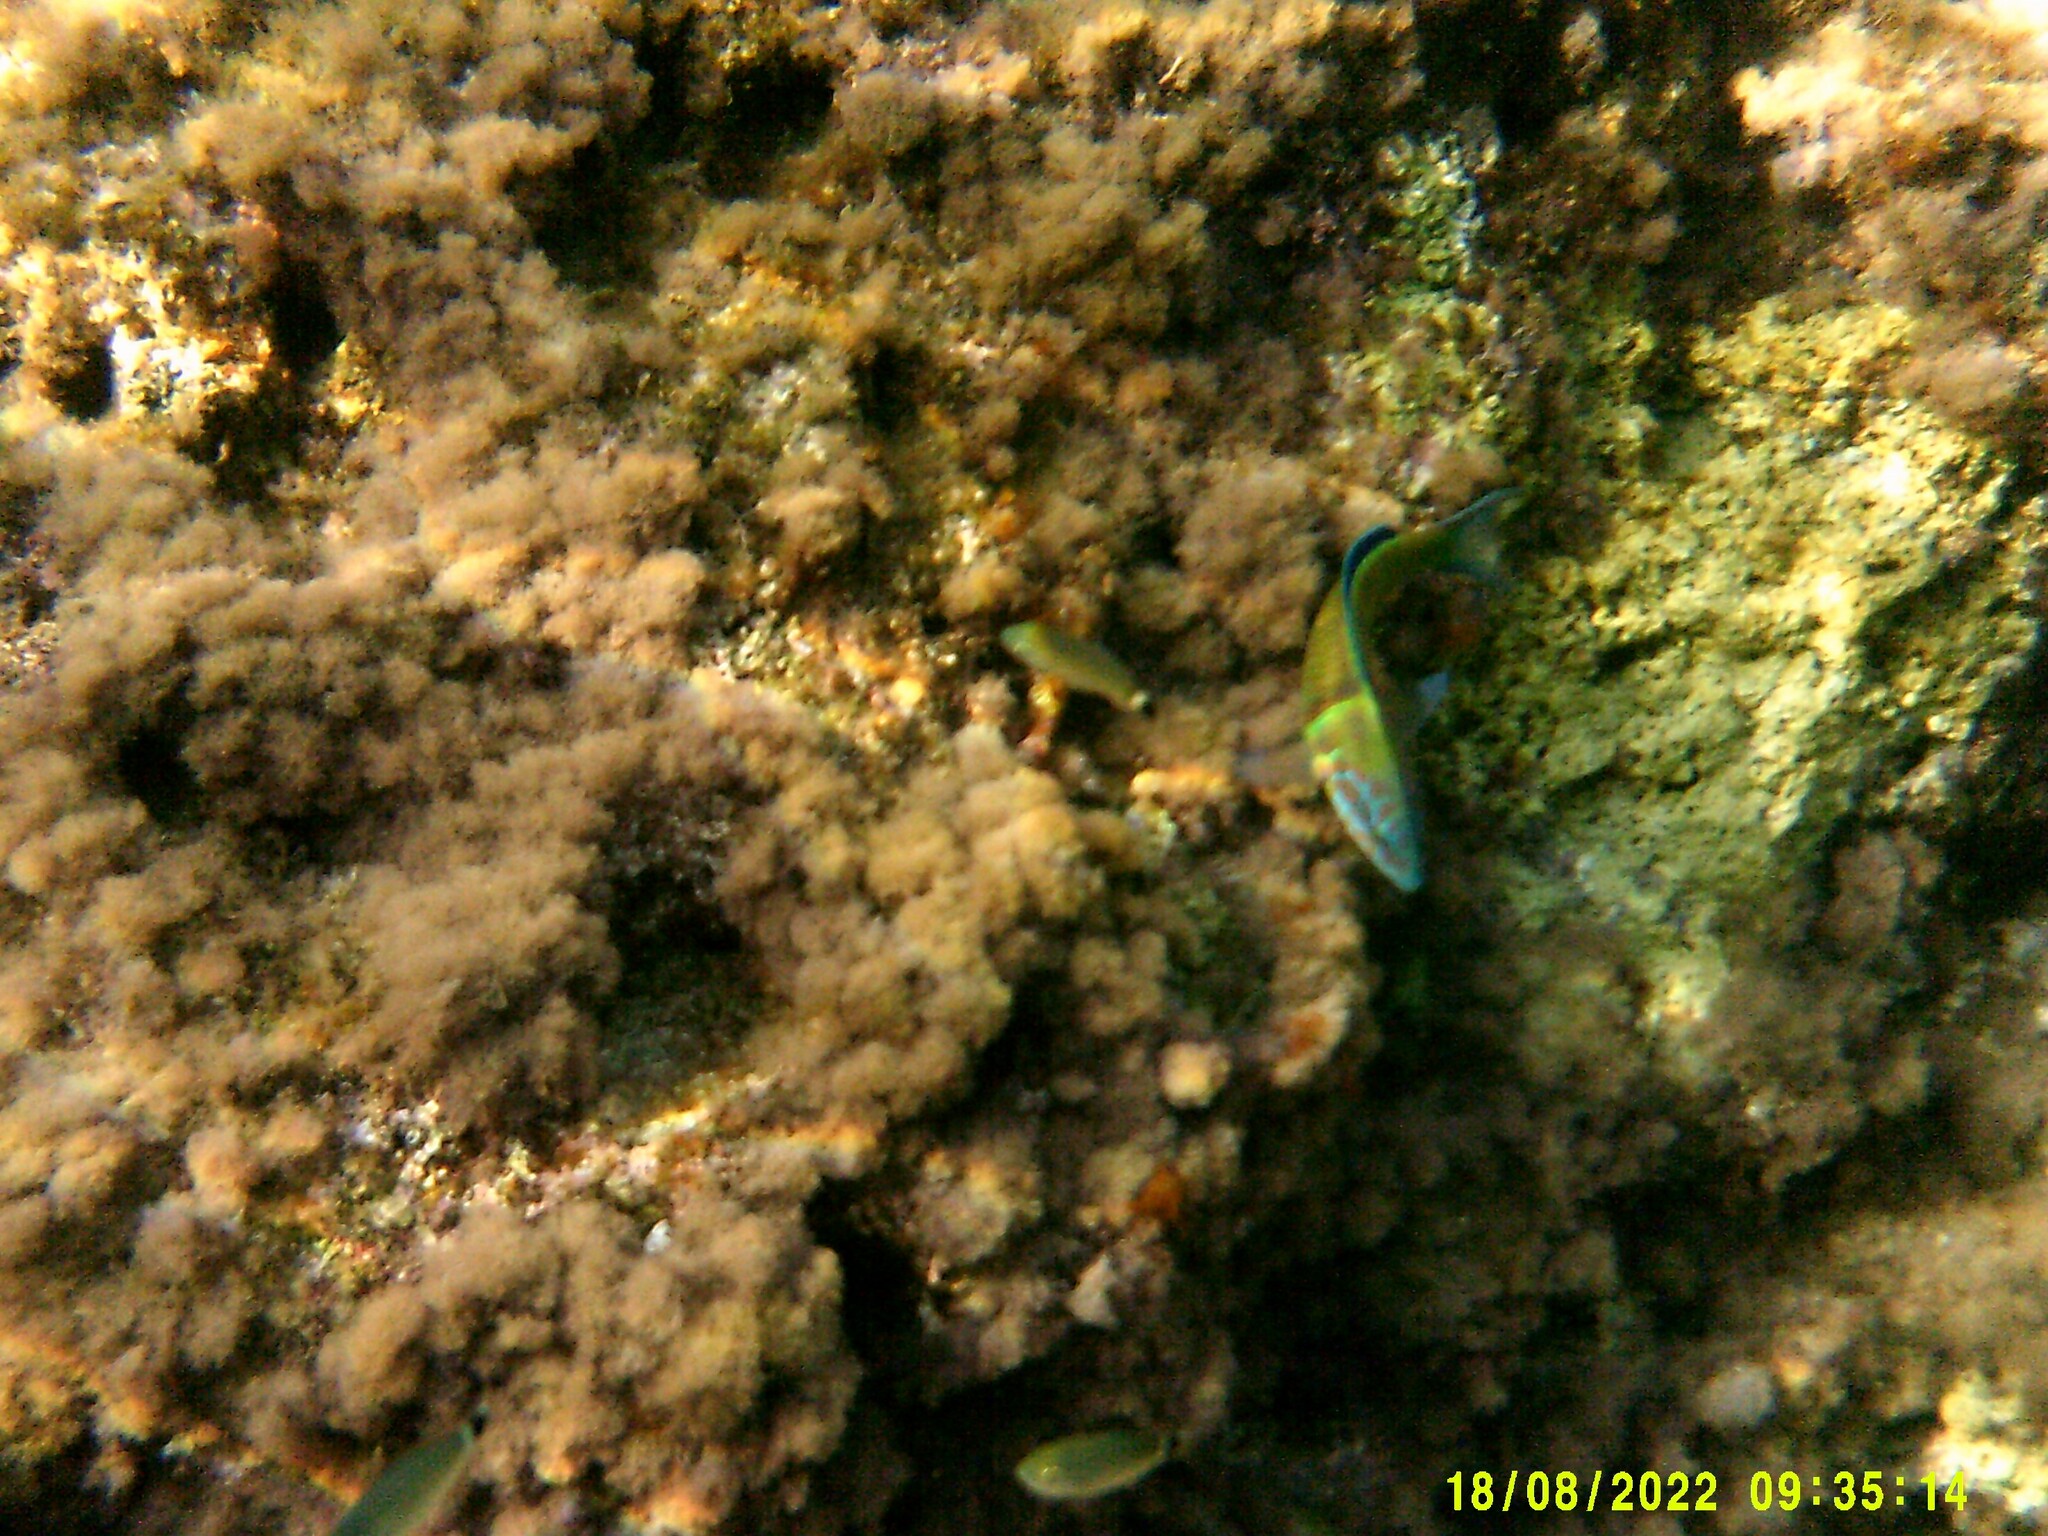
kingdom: Animalia
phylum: Chordata
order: Perciformes
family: Labridae
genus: Thalassoma
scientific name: Thalassoma pavo
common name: Ornate wrasse
